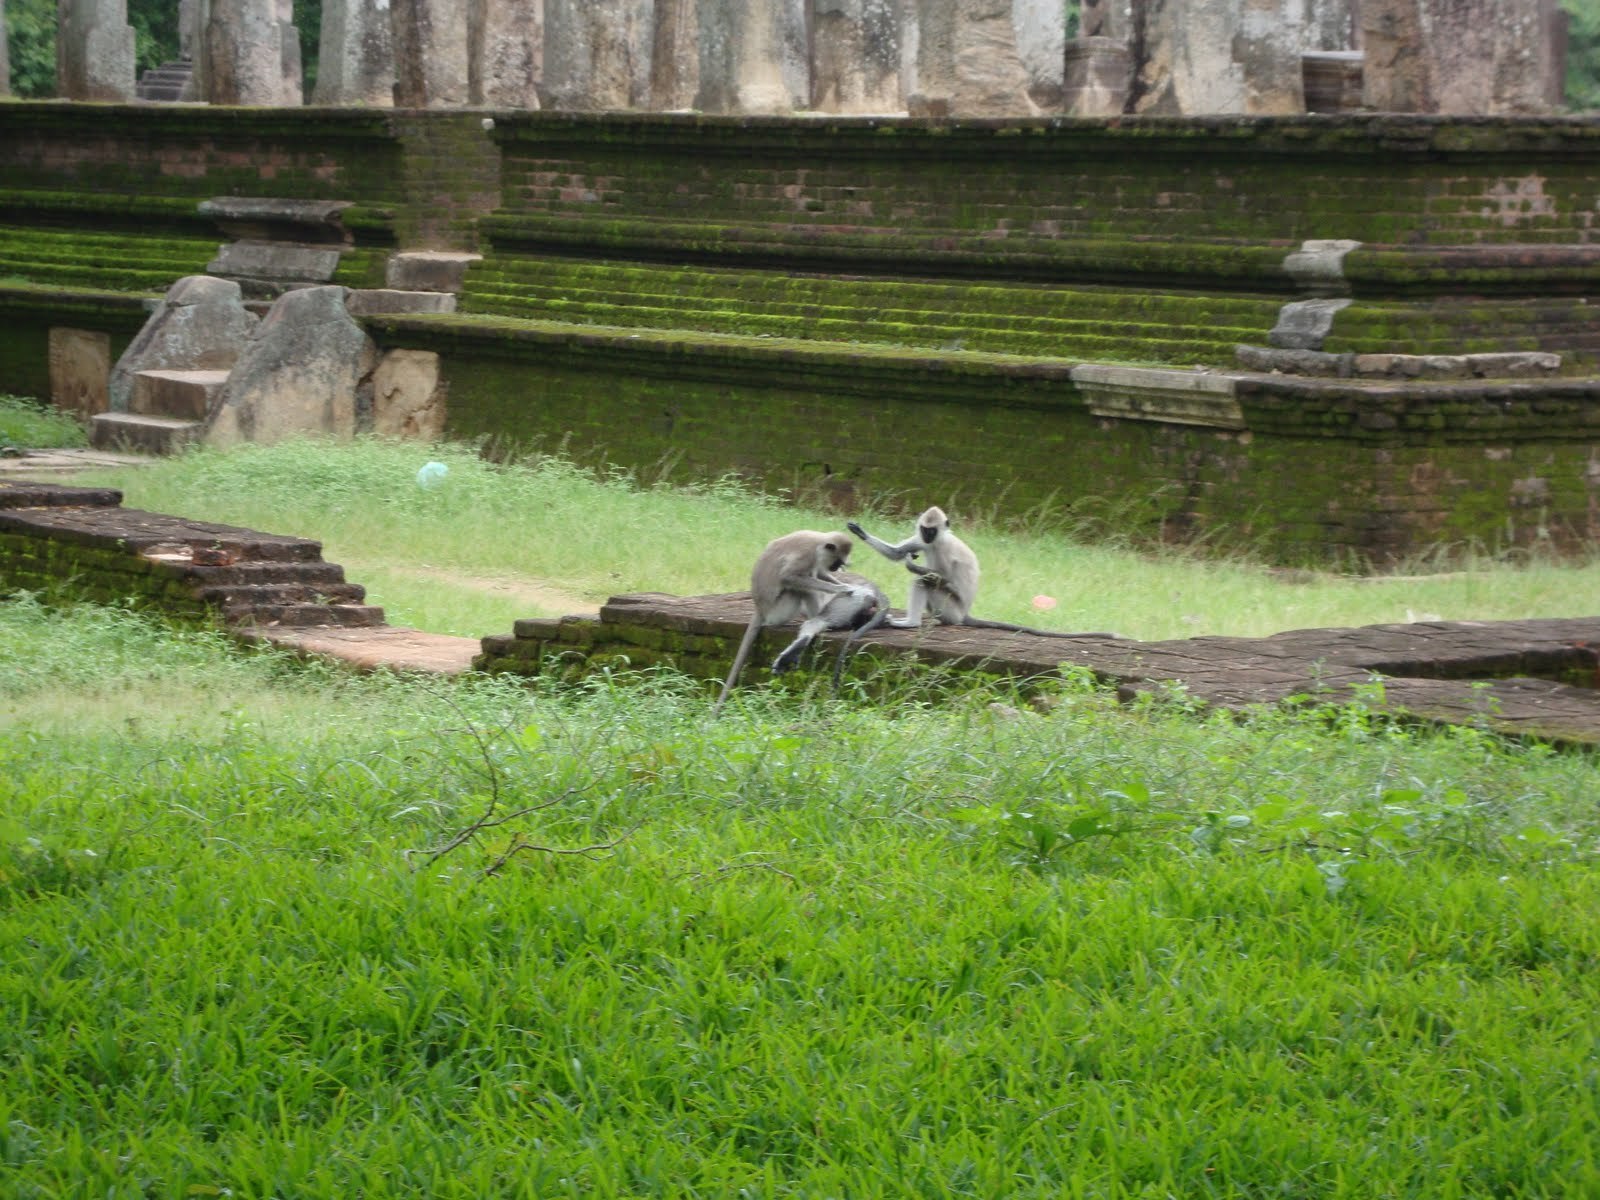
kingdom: Animalia
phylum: Chordata
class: Mammalia
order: Primates
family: Cercopithecidae
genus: Semnopithecus
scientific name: Semnopithecus priam
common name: Tufted gray langur
